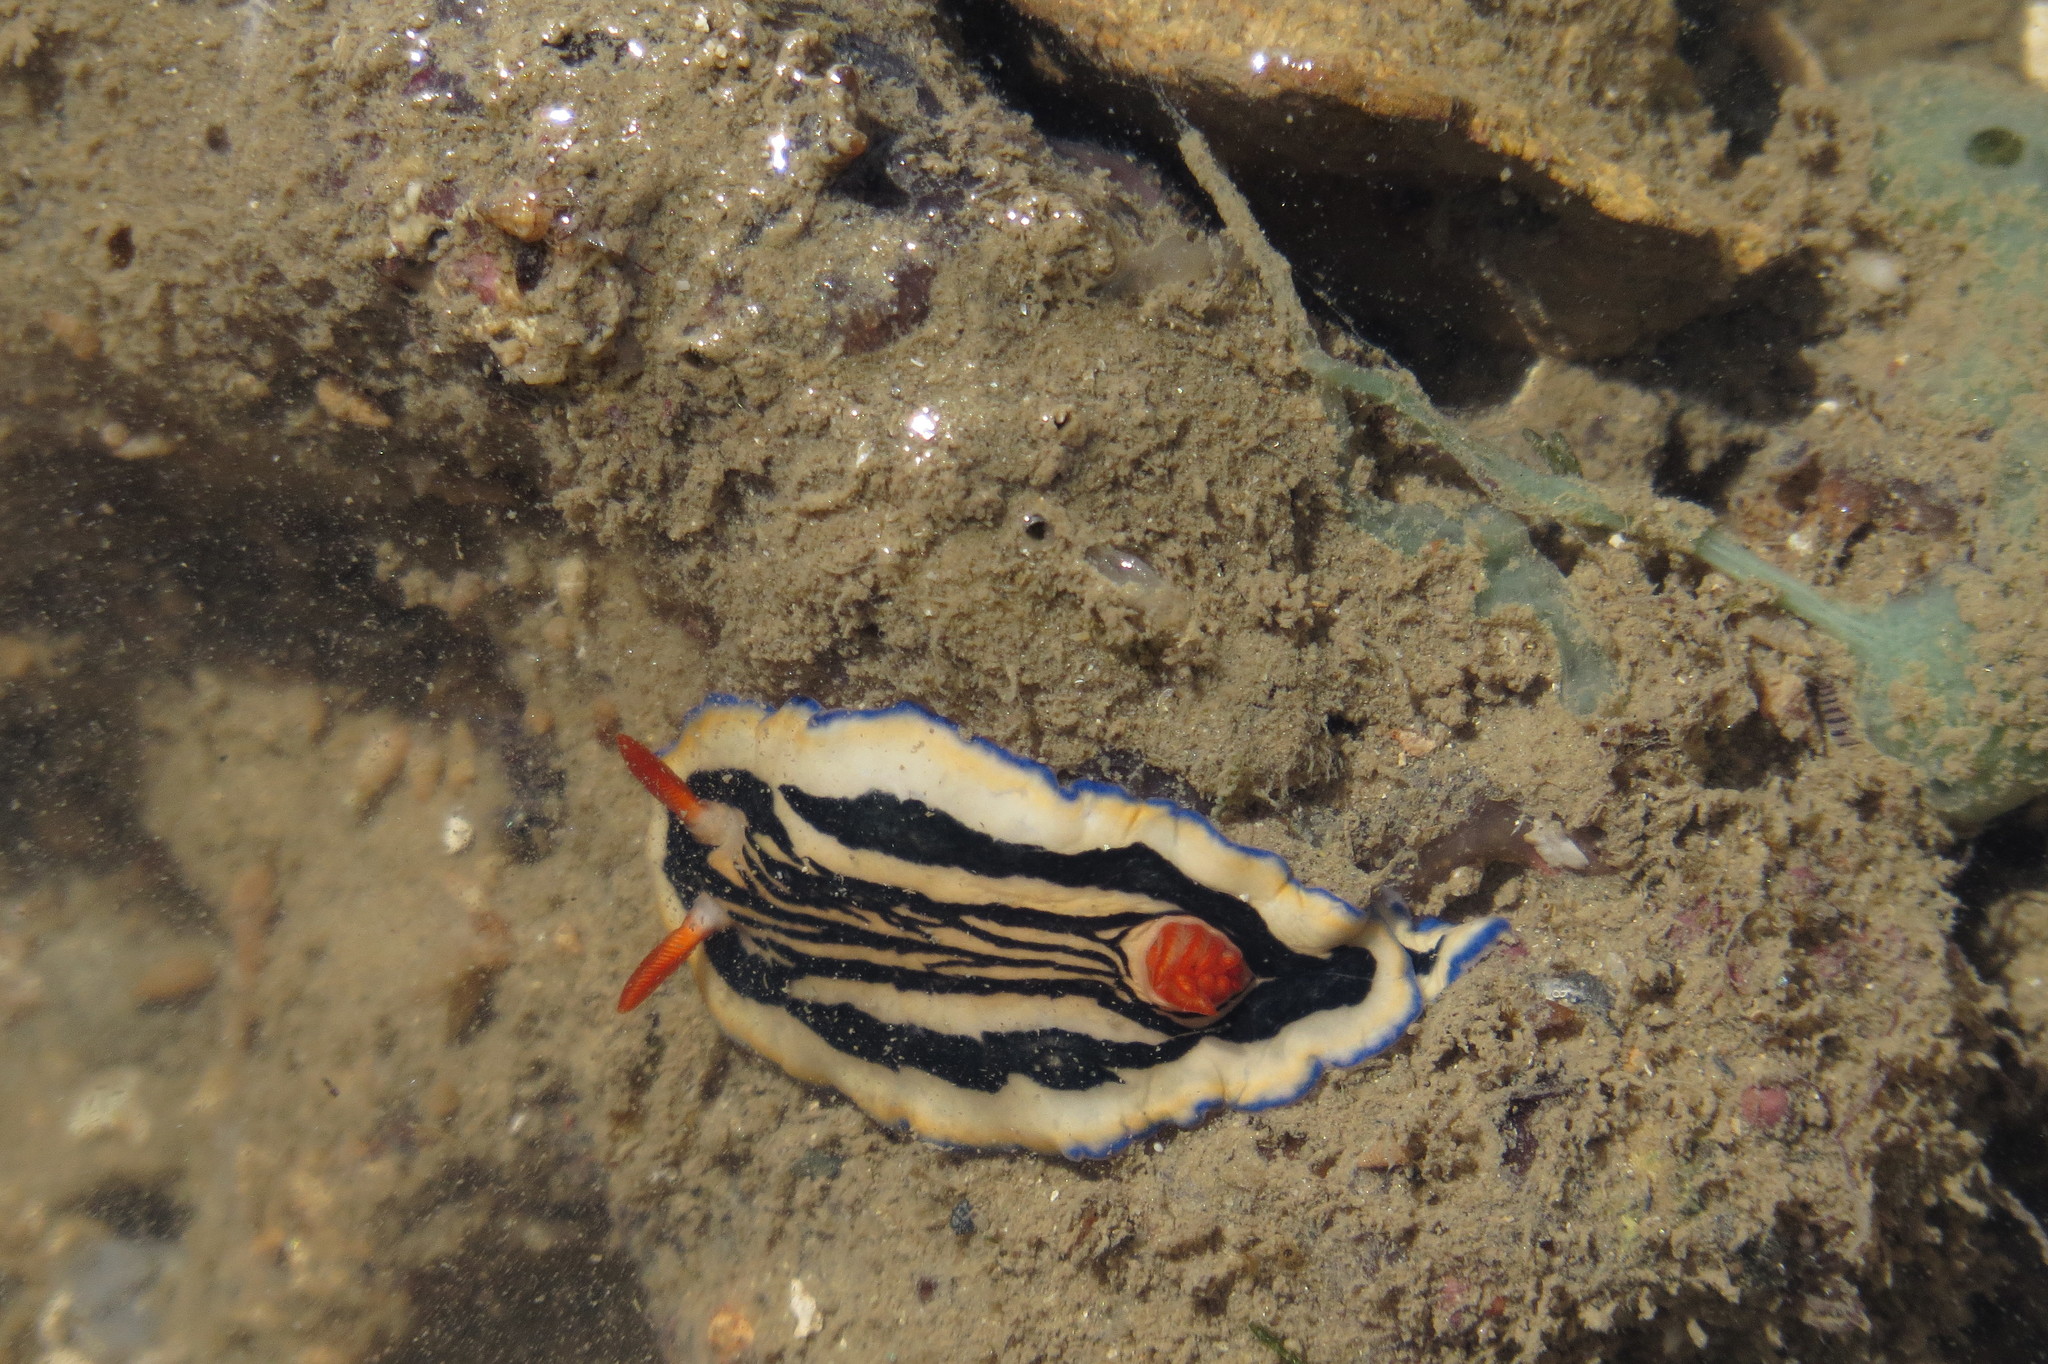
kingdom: Animalia
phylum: Mollusca
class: Gastropoda
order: Nudibranchia
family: Chromodorididae
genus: Hypselodoris
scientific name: Hypselodoris maritima
